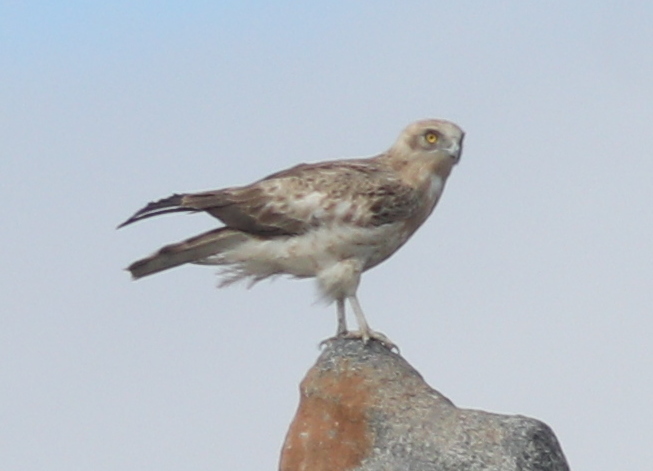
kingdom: Animalia
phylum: Chordata
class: Aves
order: Accipitriformes
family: Accipitridae
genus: Circaetus
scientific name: Circaetus gallicus
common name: Short-toed snake eagle
